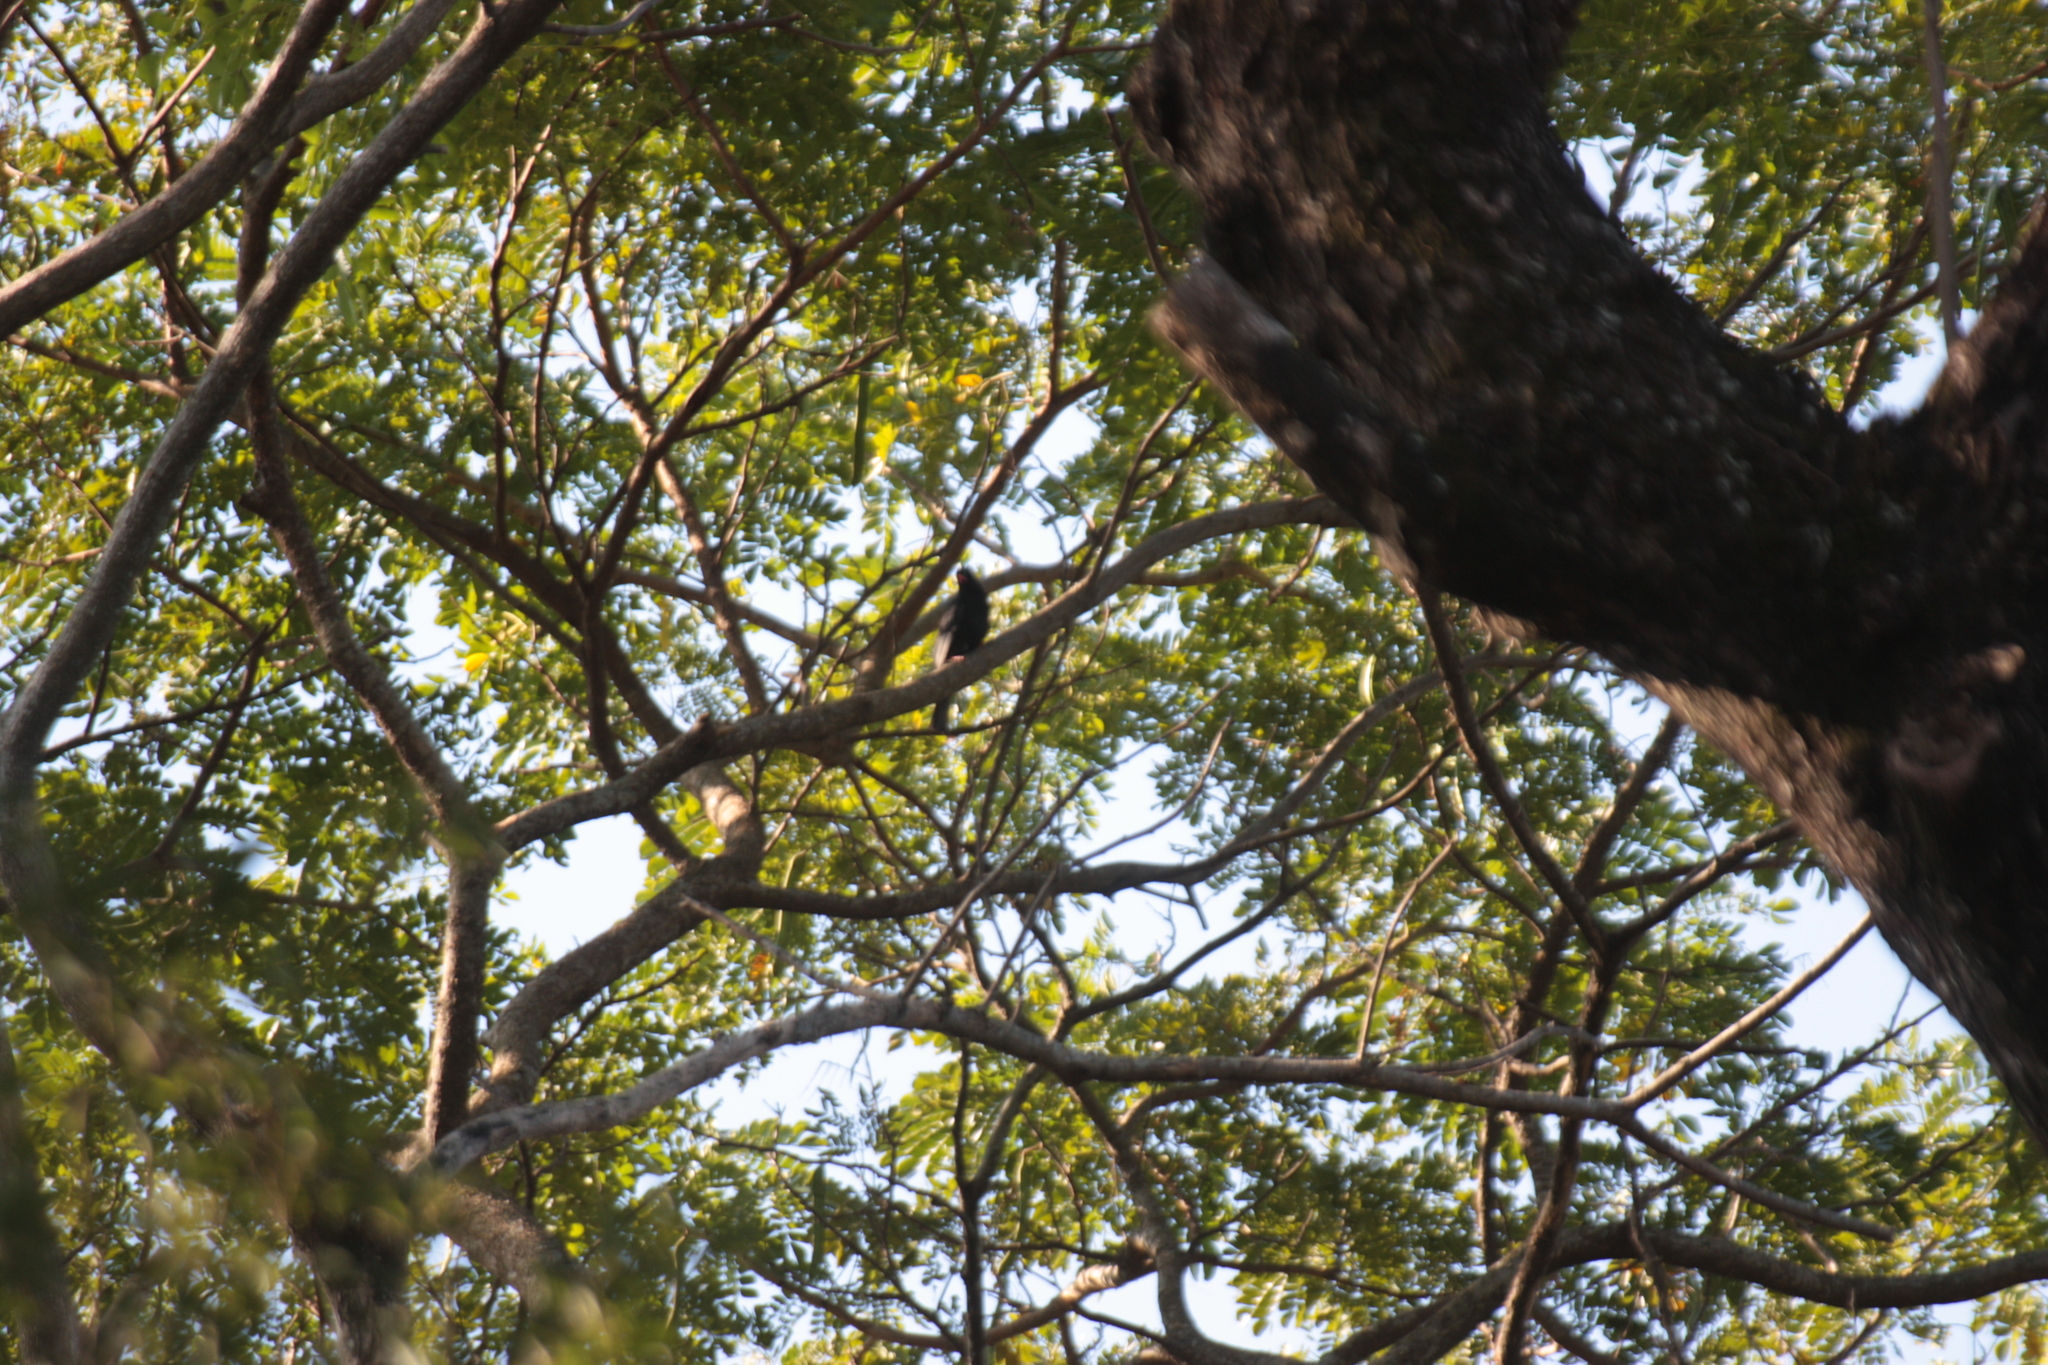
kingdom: Animalia
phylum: Chordata
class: Aves
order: Passeriformes
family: Pycnonotidae
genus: Hypsipetes
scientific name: Hypsipetes leucocephalus
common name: Black bulbul
